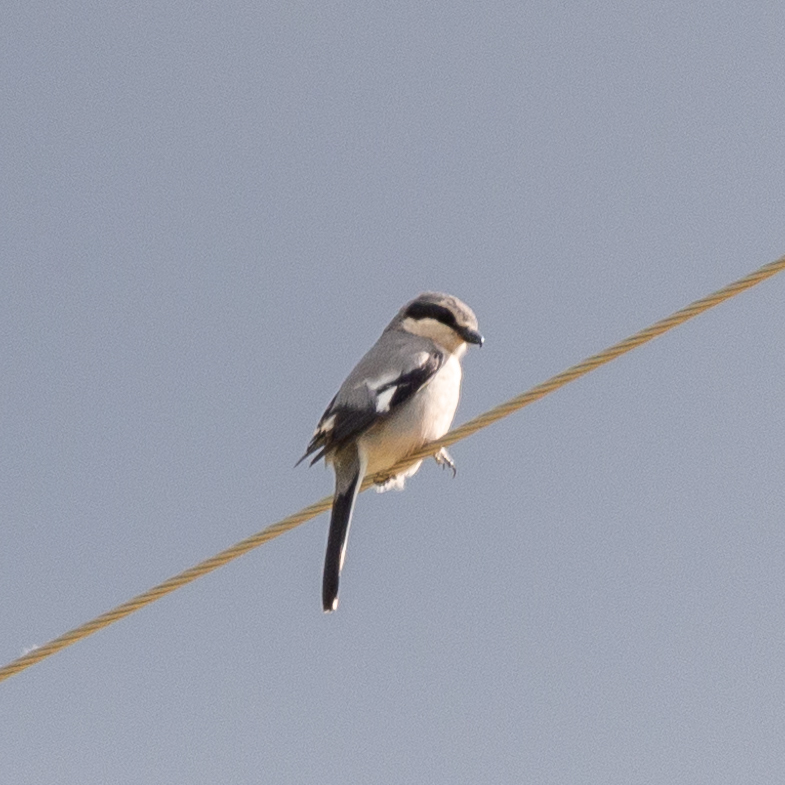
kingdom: Animalia
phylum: Chordata
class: Aves
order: Passeriformes
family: Laniidae
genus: Lanius
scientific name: Lanius meridionalis
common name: Iberian grey shrike
